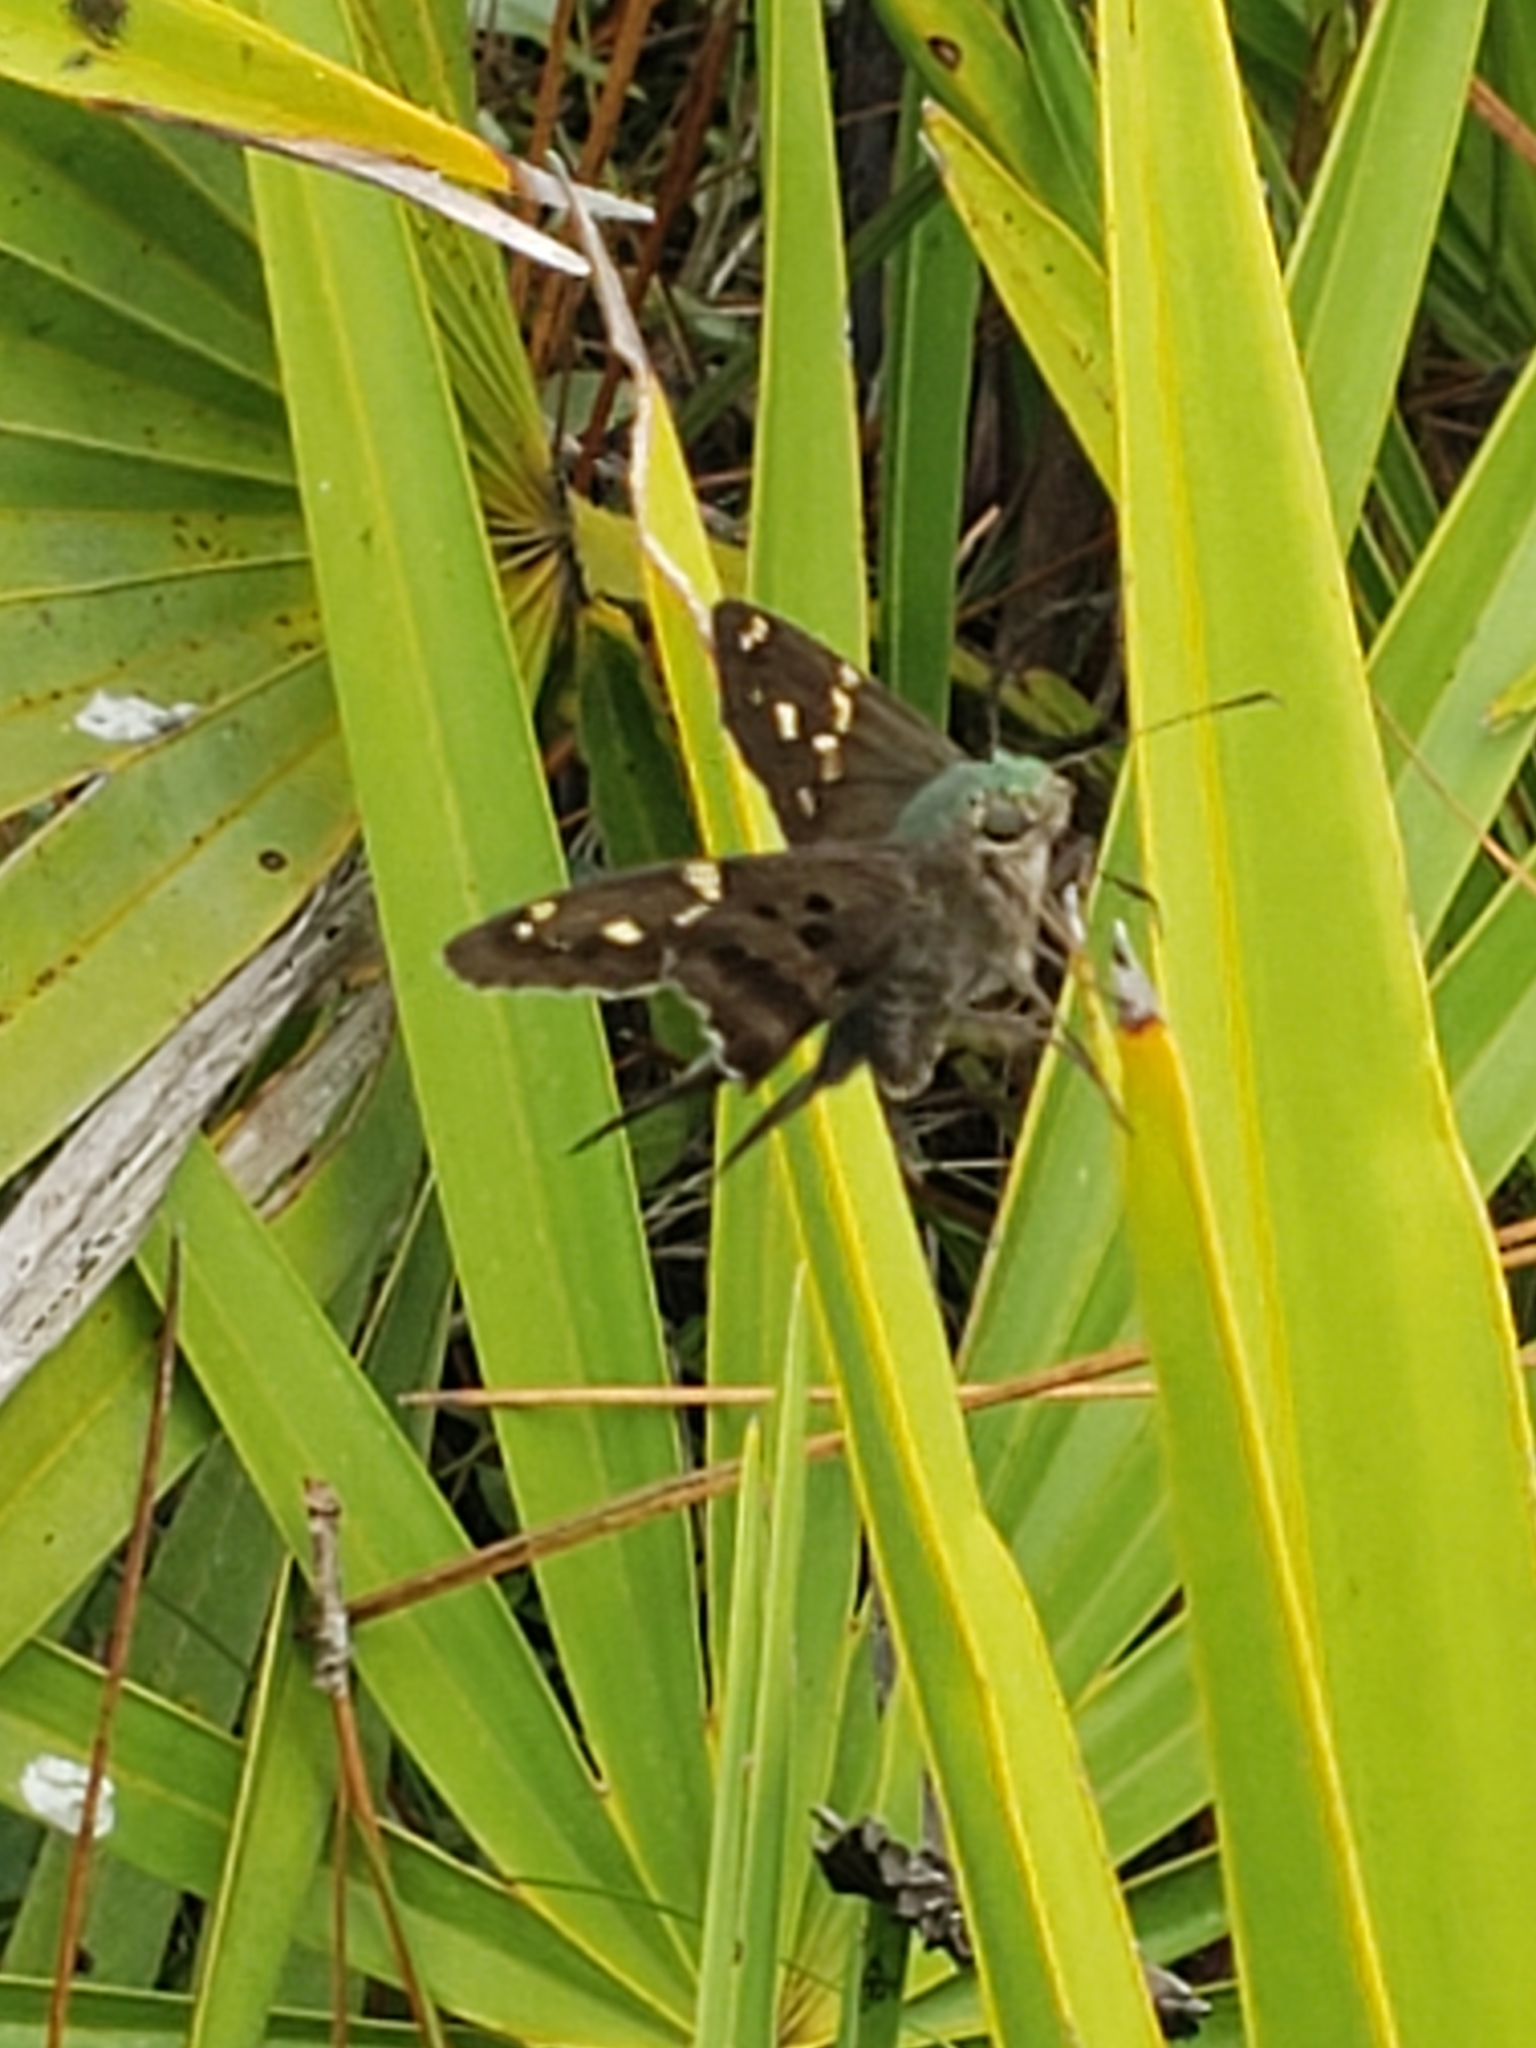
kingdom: Animalia
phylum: Arthropoda
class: Insecta
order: Lepidoptera
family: Hesperiidae
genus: Urbanus
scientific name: Urbanus proteus
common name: Long-tailed skipper
